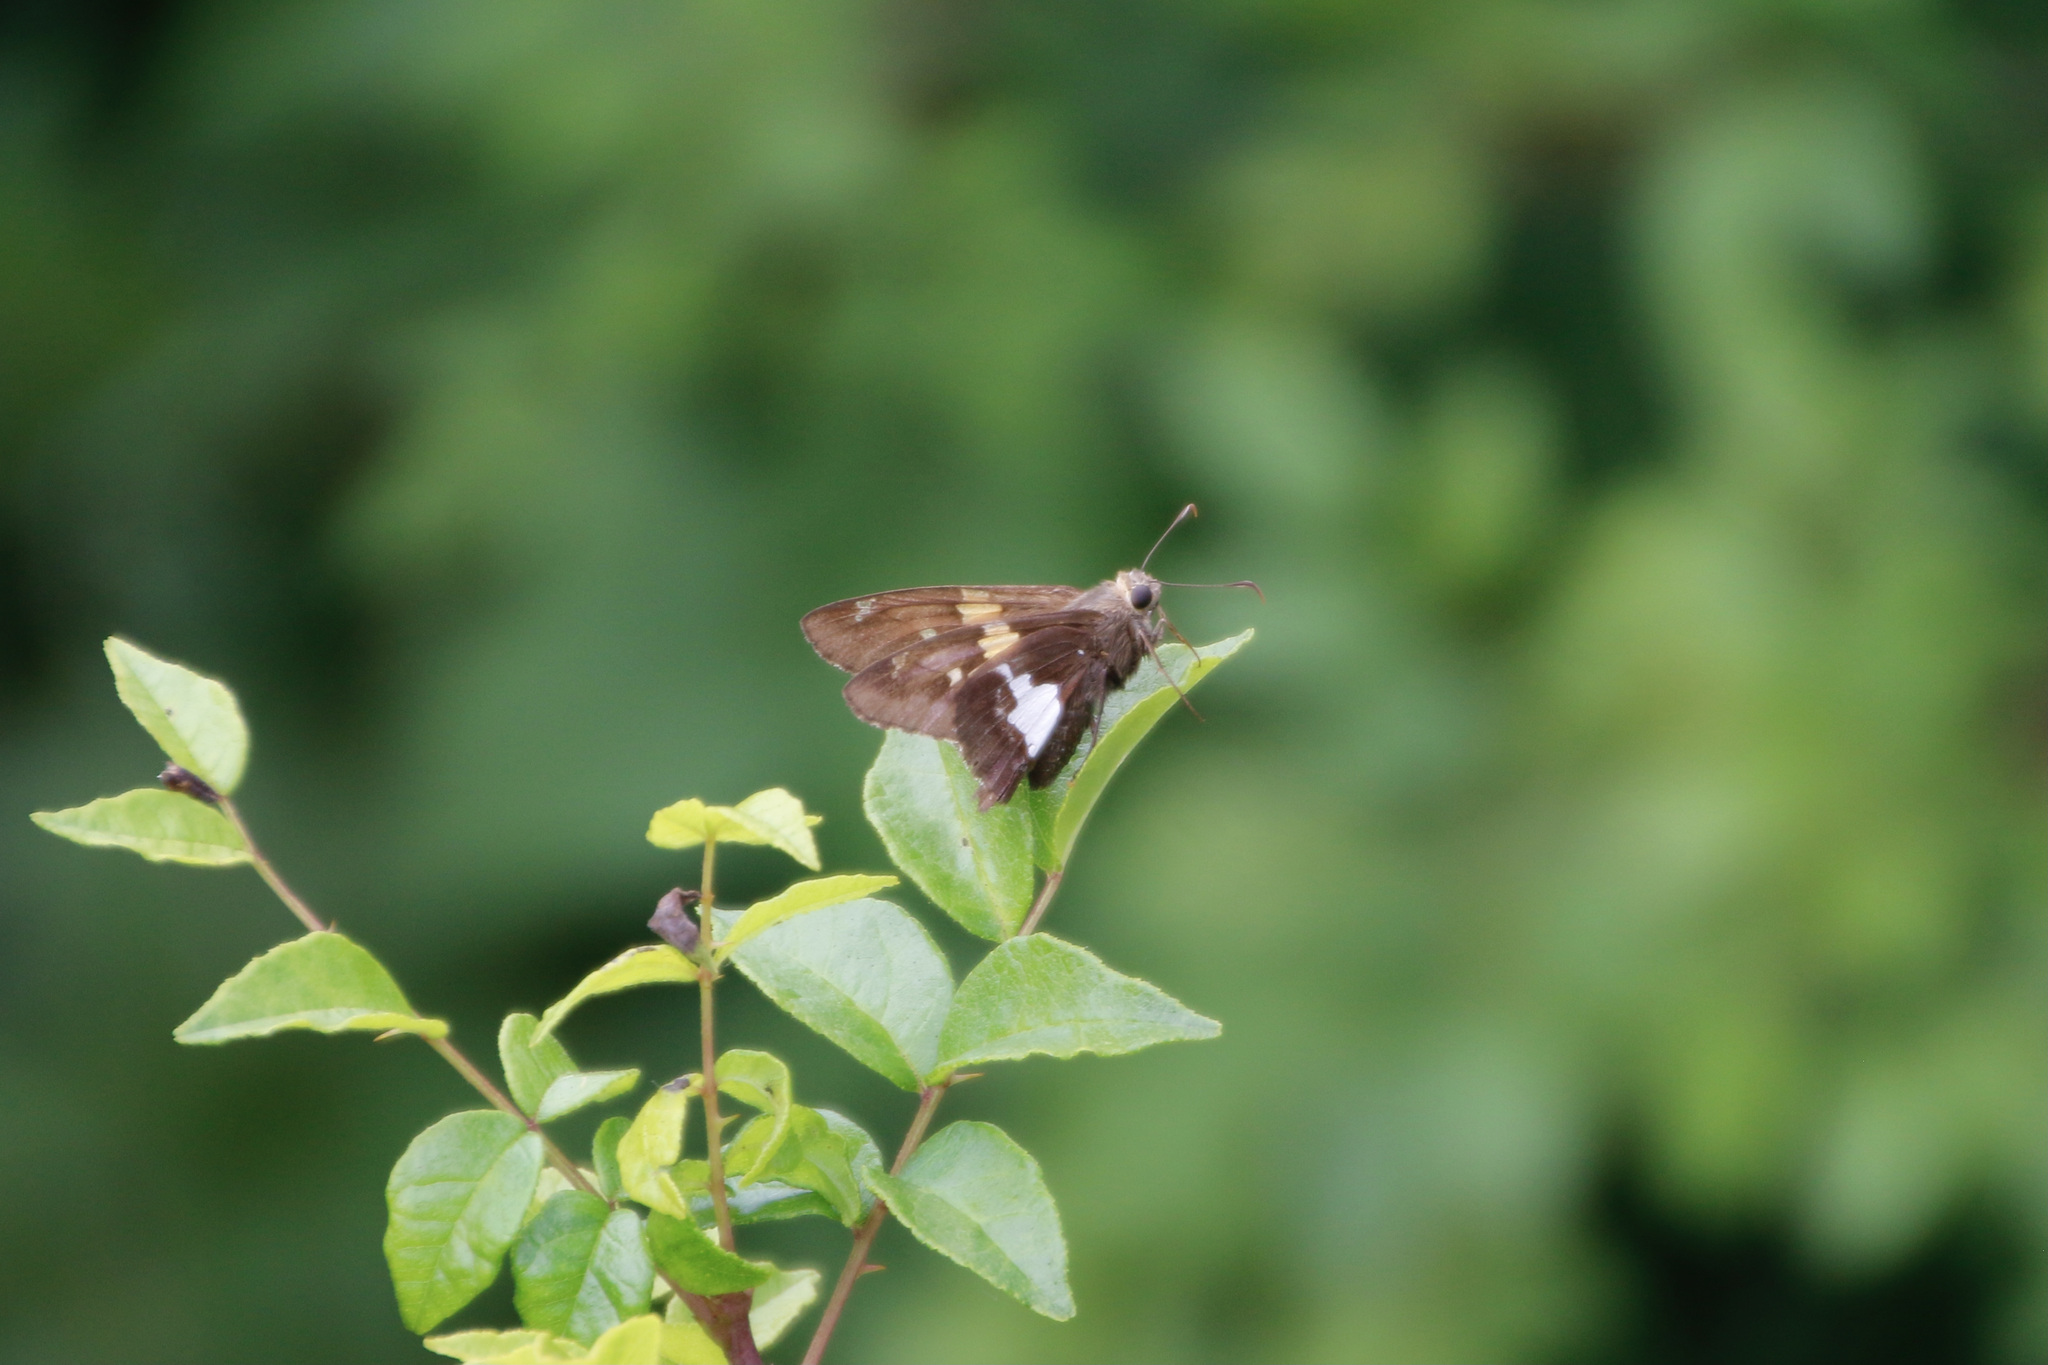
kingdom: Animalia
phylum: Arthropoda
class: Insecta
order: Lepidoptera
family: Hesperiidae
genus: Epargyreus
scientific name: Epargyreus clarus
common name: Silver-spotted skipper
